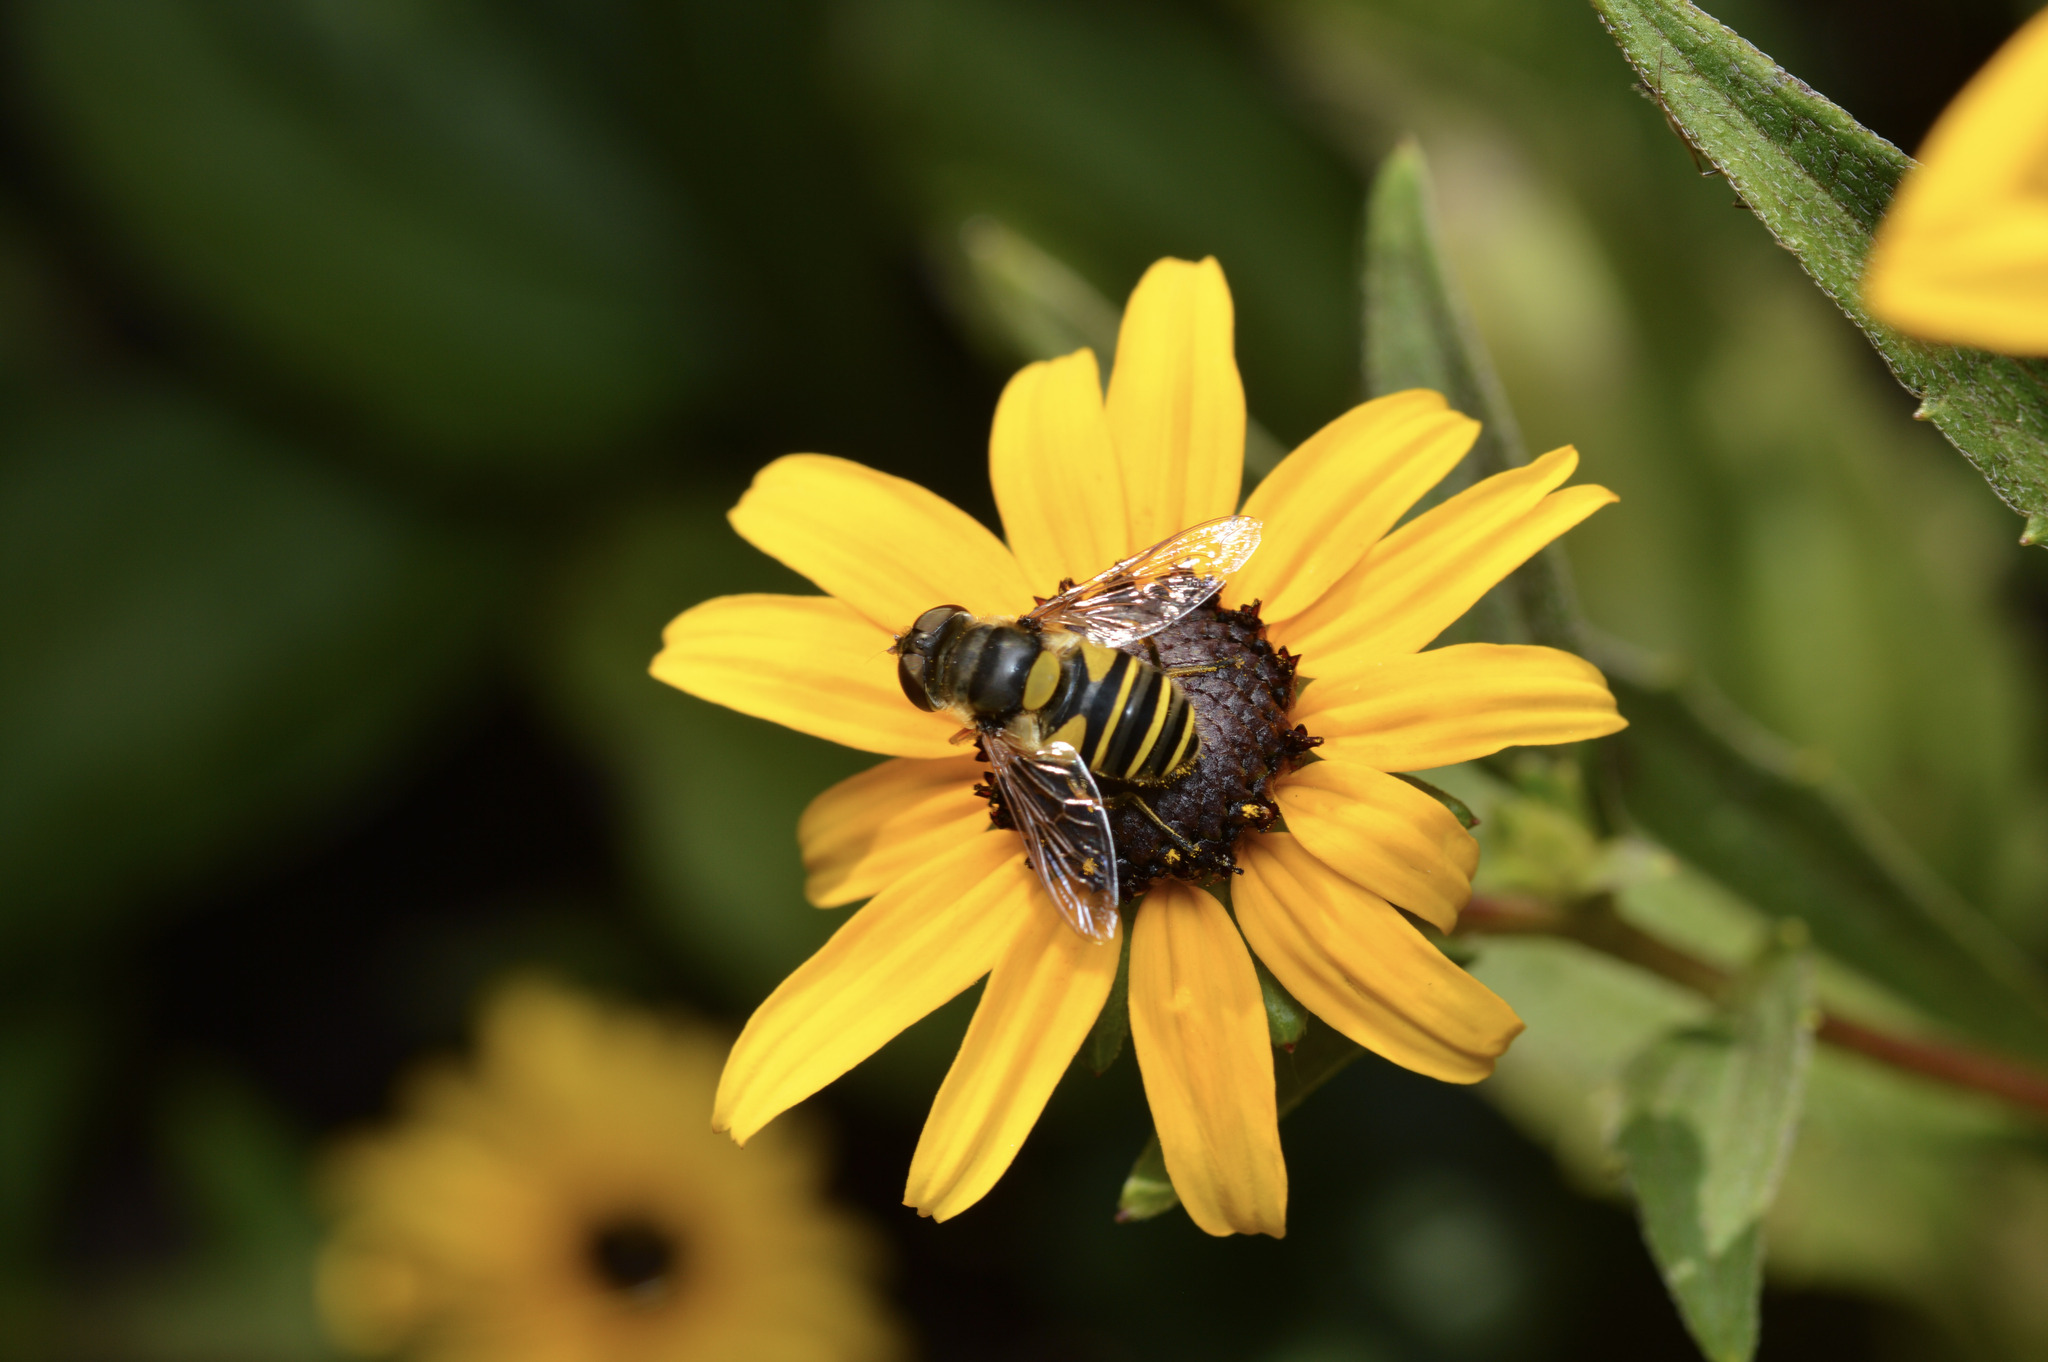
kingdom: Animalia
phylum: Arthropoda
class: Insecta
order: Diptera
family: Syrphidae
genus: Eristalis
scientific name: Eristalis transversa
